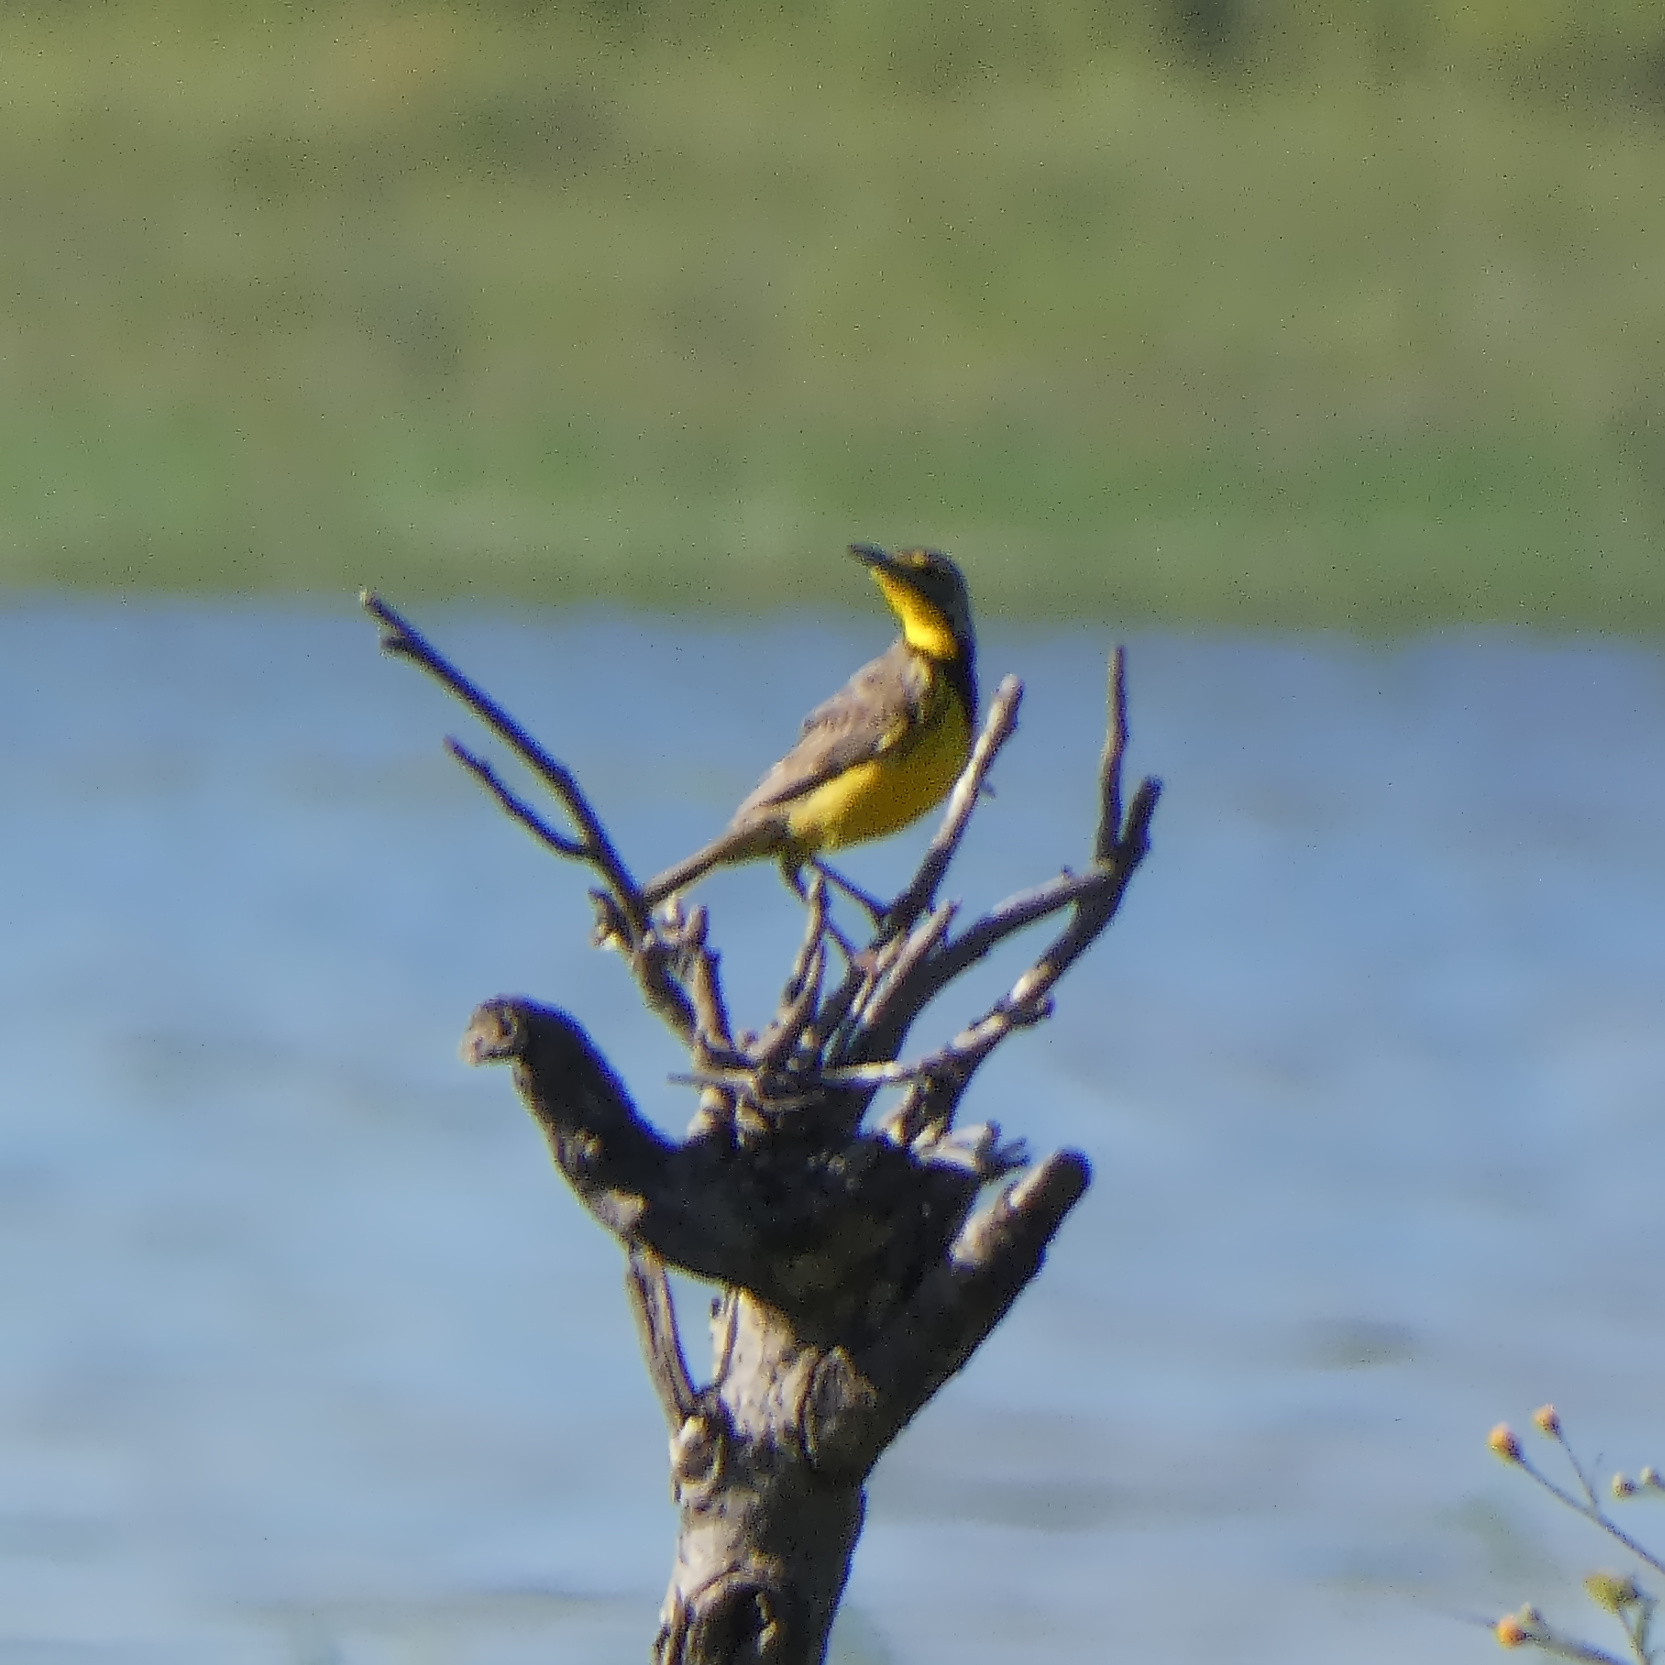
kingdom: Animalia
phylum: Chordata
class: Aves
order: Passeriformes
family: Motacillidae
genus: Macronyx
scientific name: Macronyx croceus
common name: Yellow-throated longclaw
